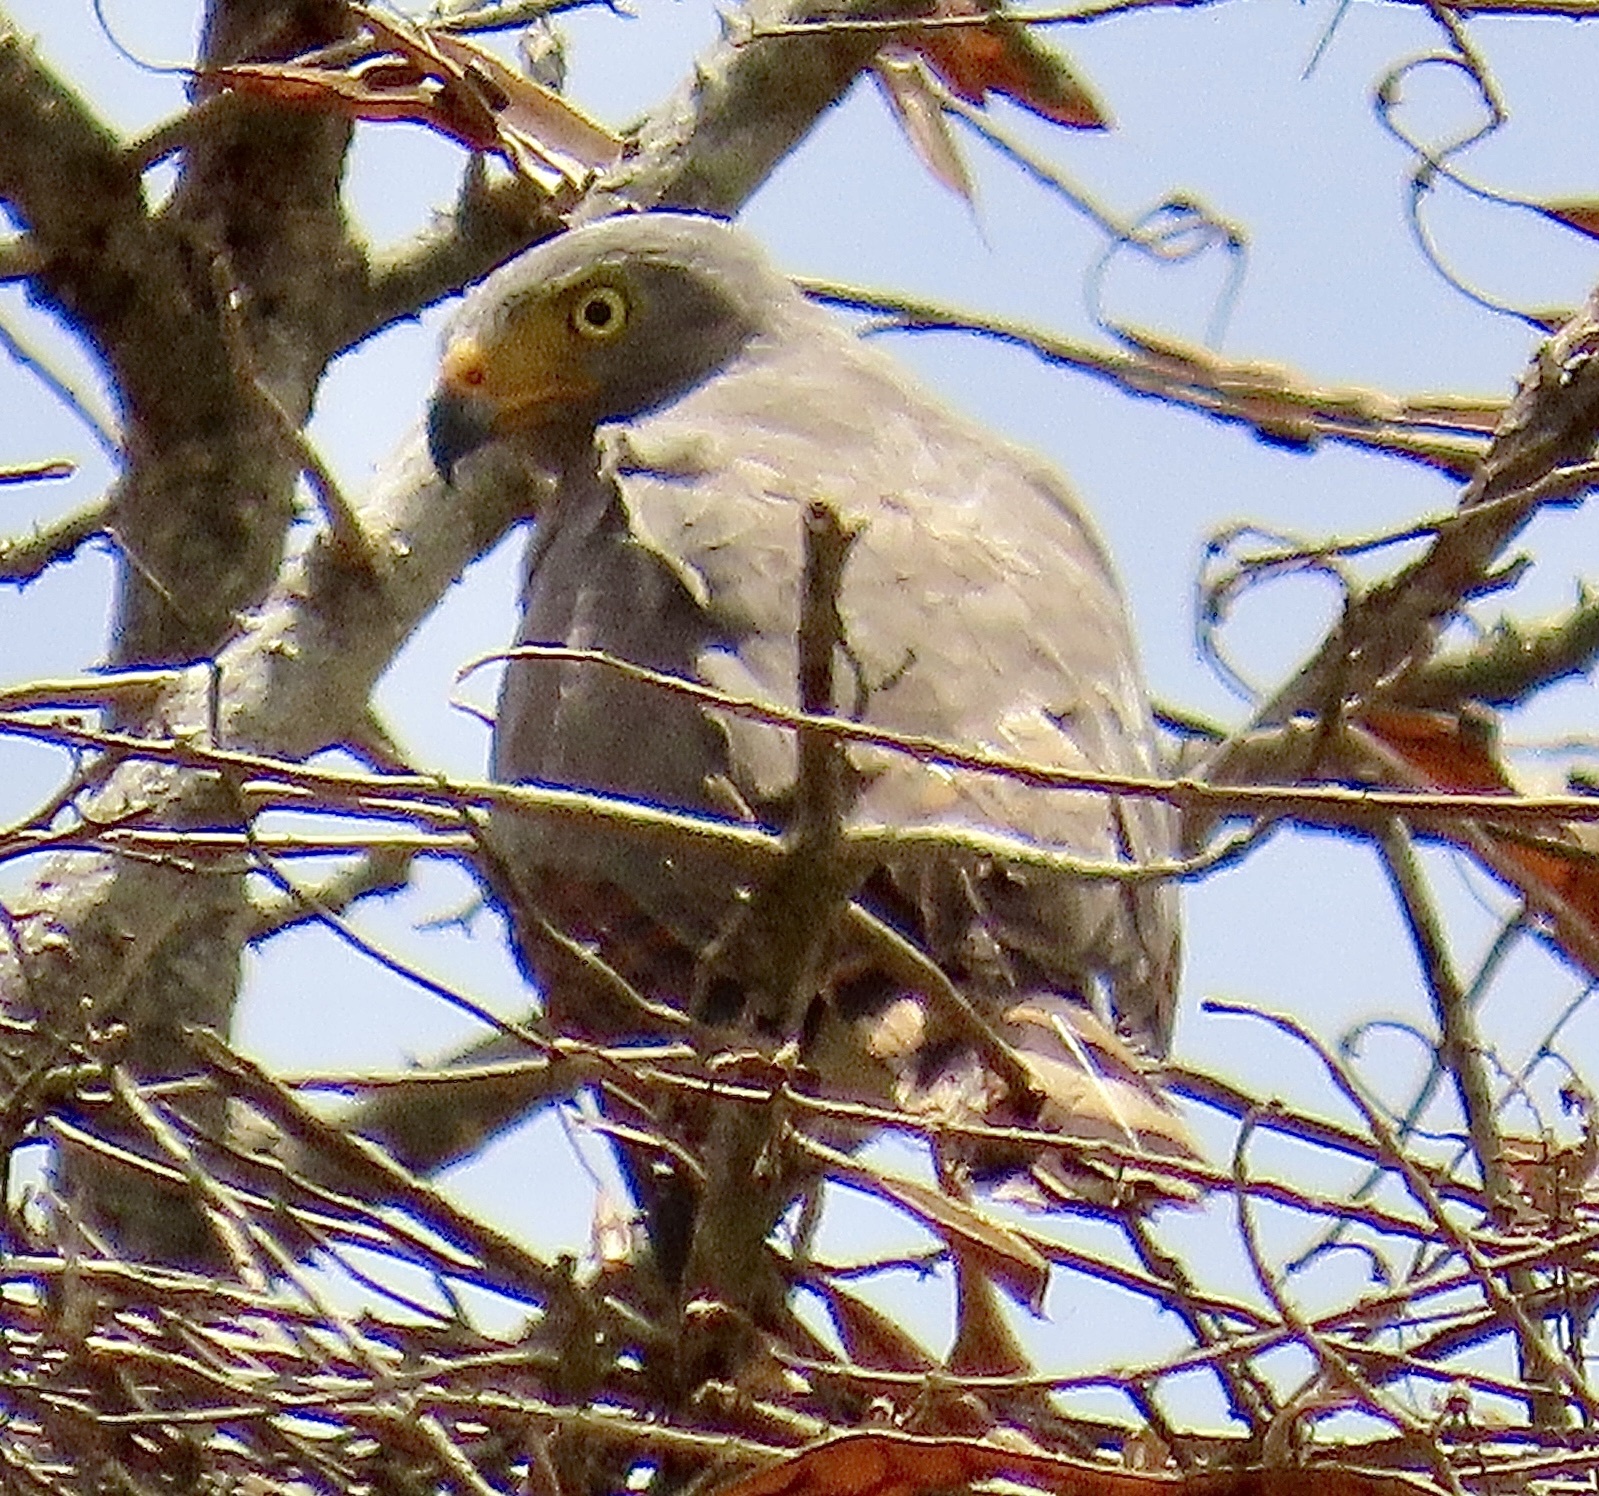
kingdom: Animalia
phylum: Chordata
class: Aves
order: Accipitriformes
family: Accipitridae
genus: Rupornis
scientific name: Rupornis magnirostris
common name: Roadside hawk
